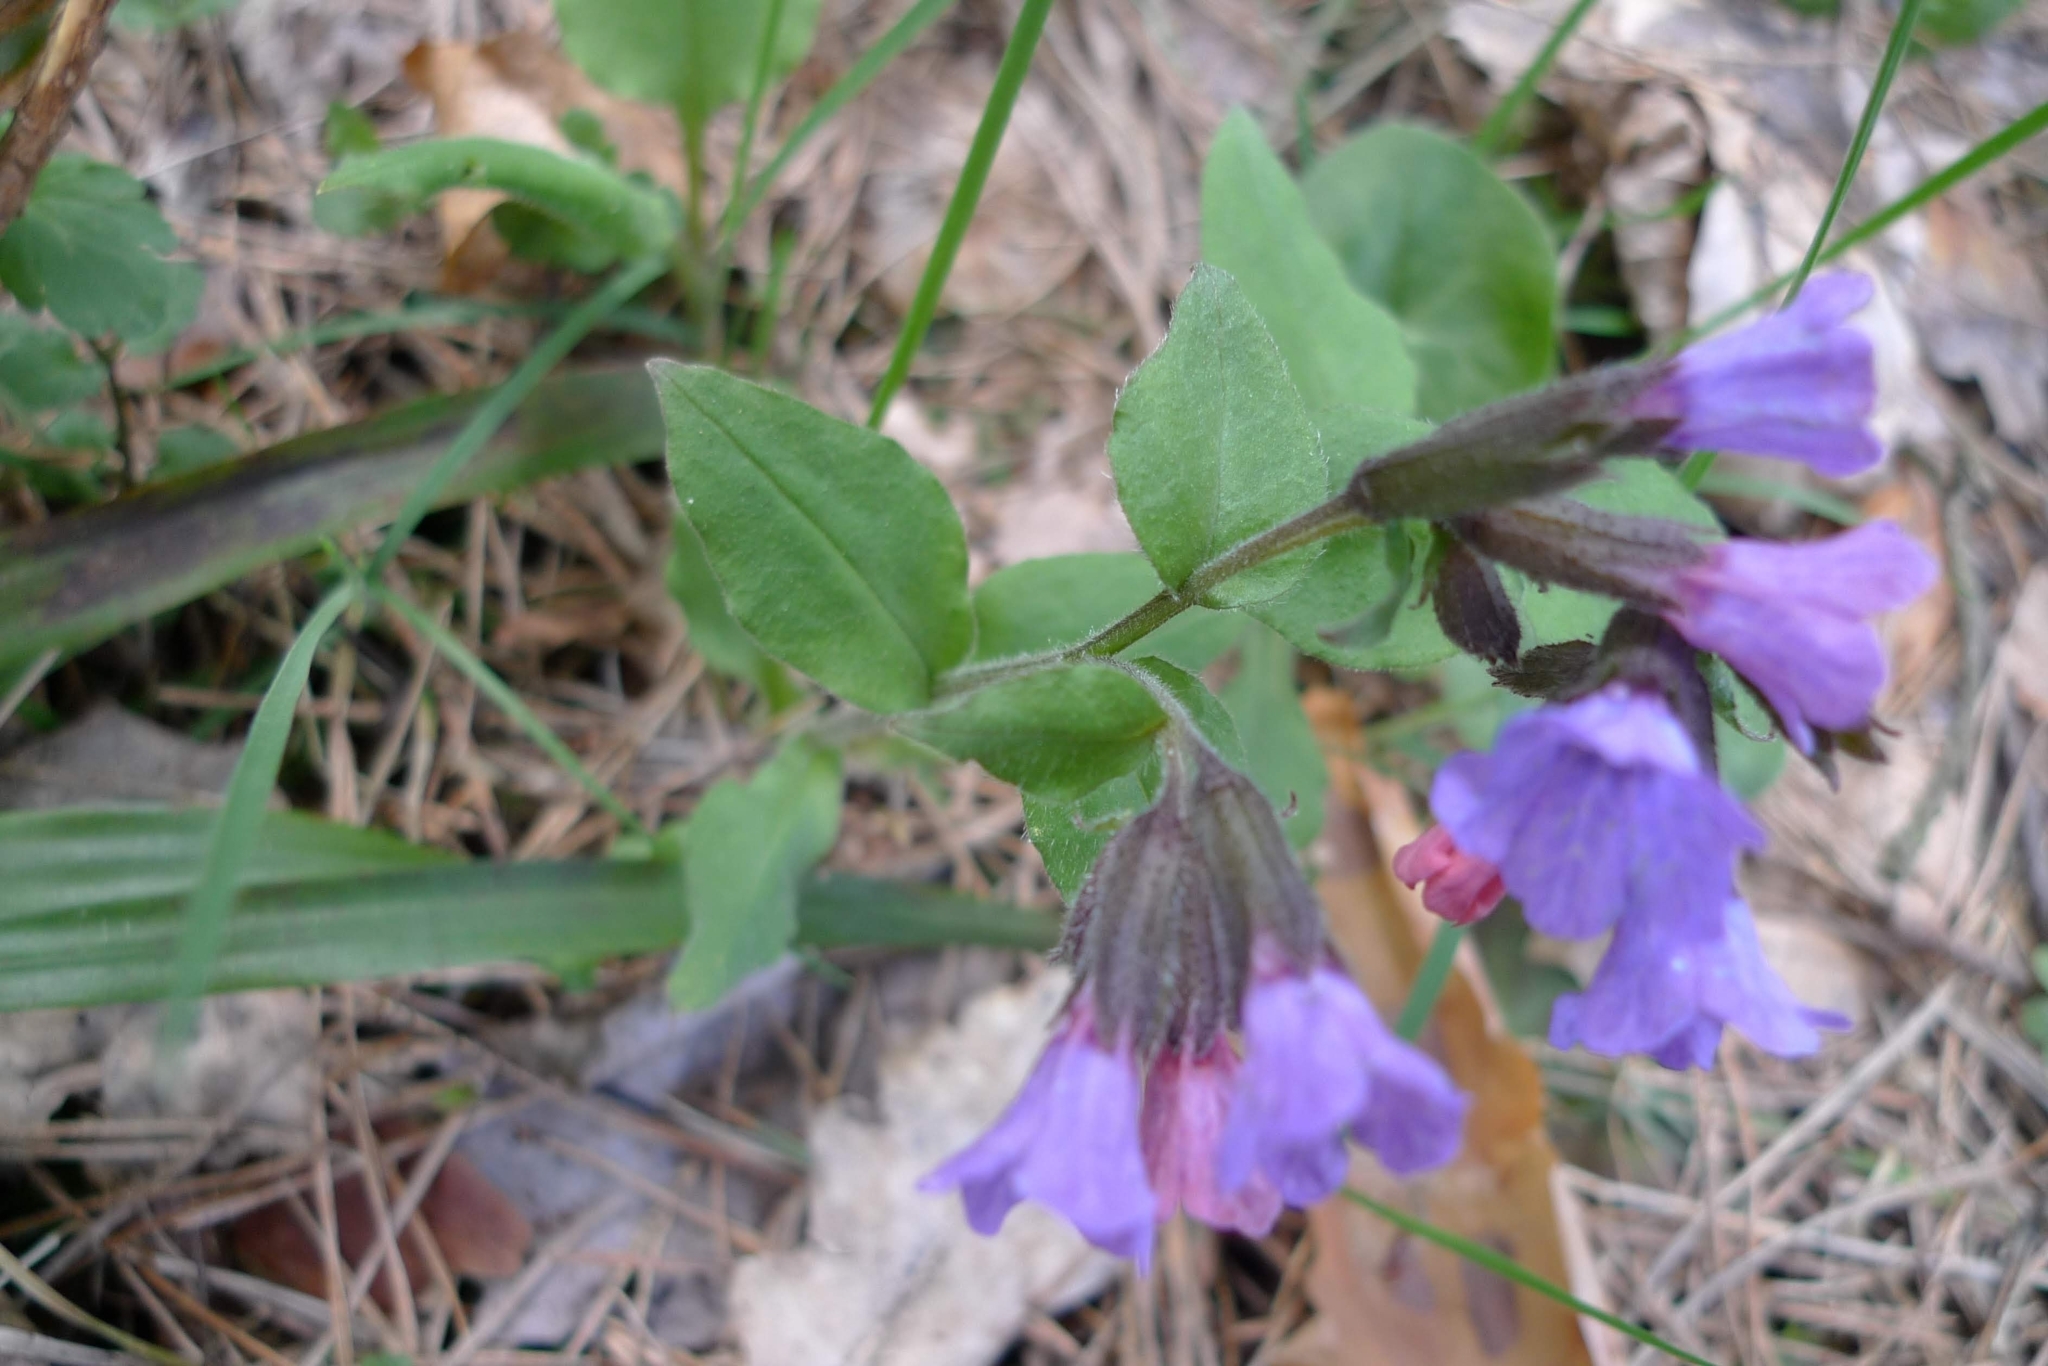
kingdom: Plantae
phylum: Tracheophyta
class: Magnoliopsida
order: Boraginales
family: Boraginaceae
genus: Pulmonaria
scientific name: Pulmonaria obscura
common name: Suffolk lungwort
